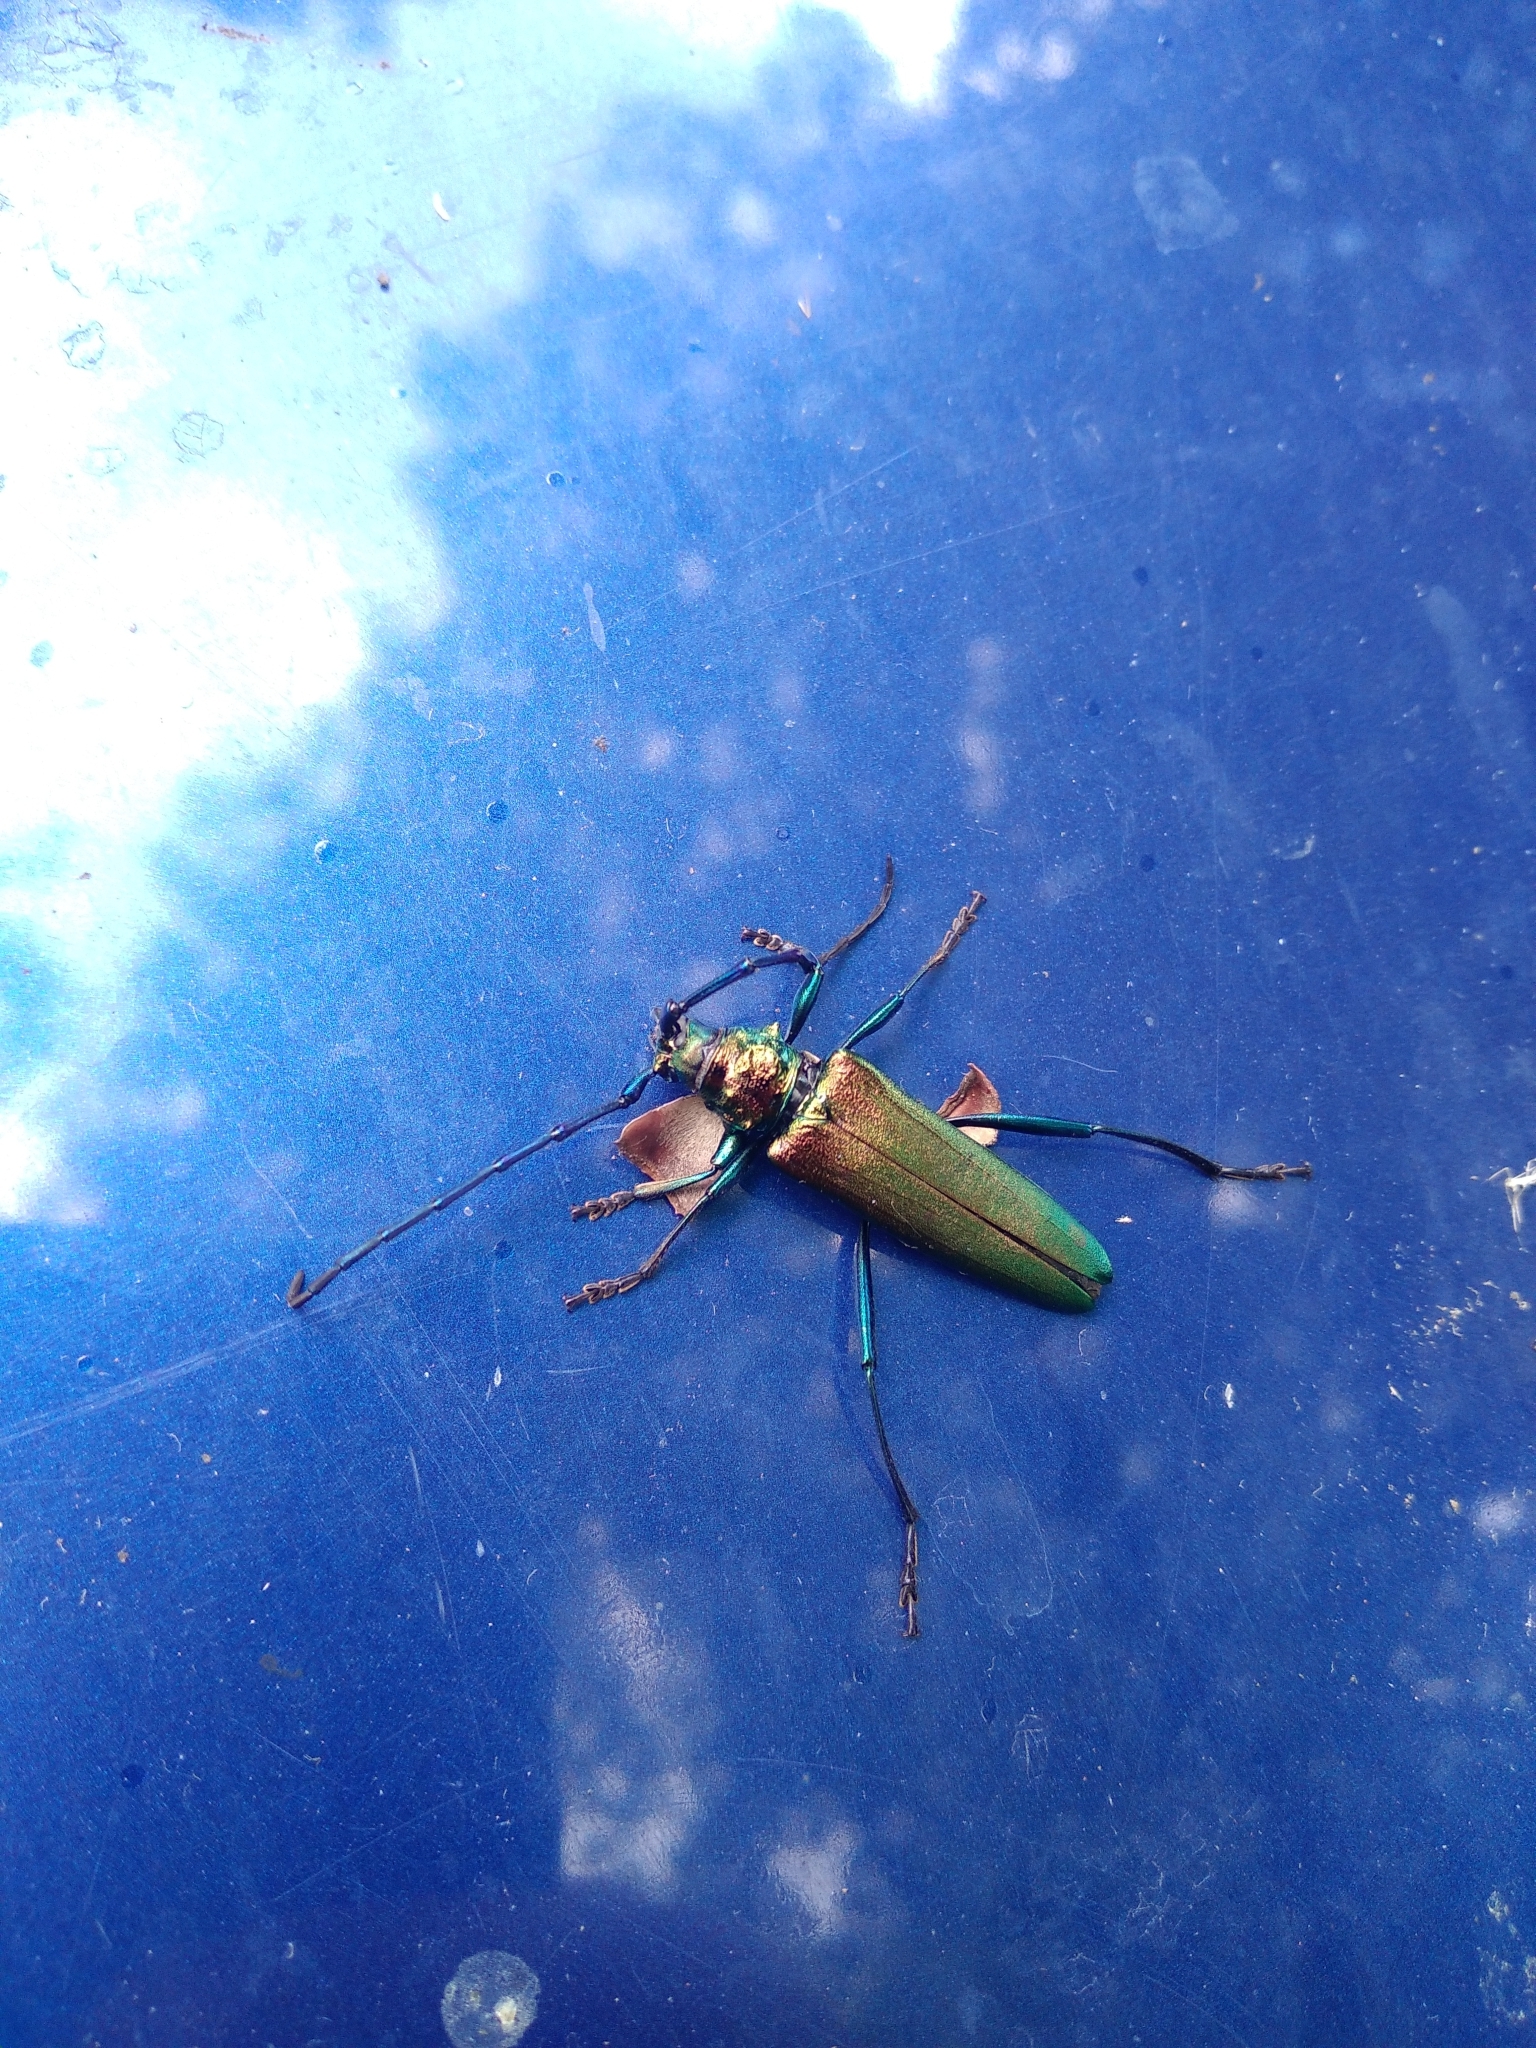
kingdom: Animalia
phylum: Arthropoda
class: Insecta
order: Coleoptera
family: Cerambycidae
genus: Aromia
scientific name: Aromia moschata
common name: Musk beetle
